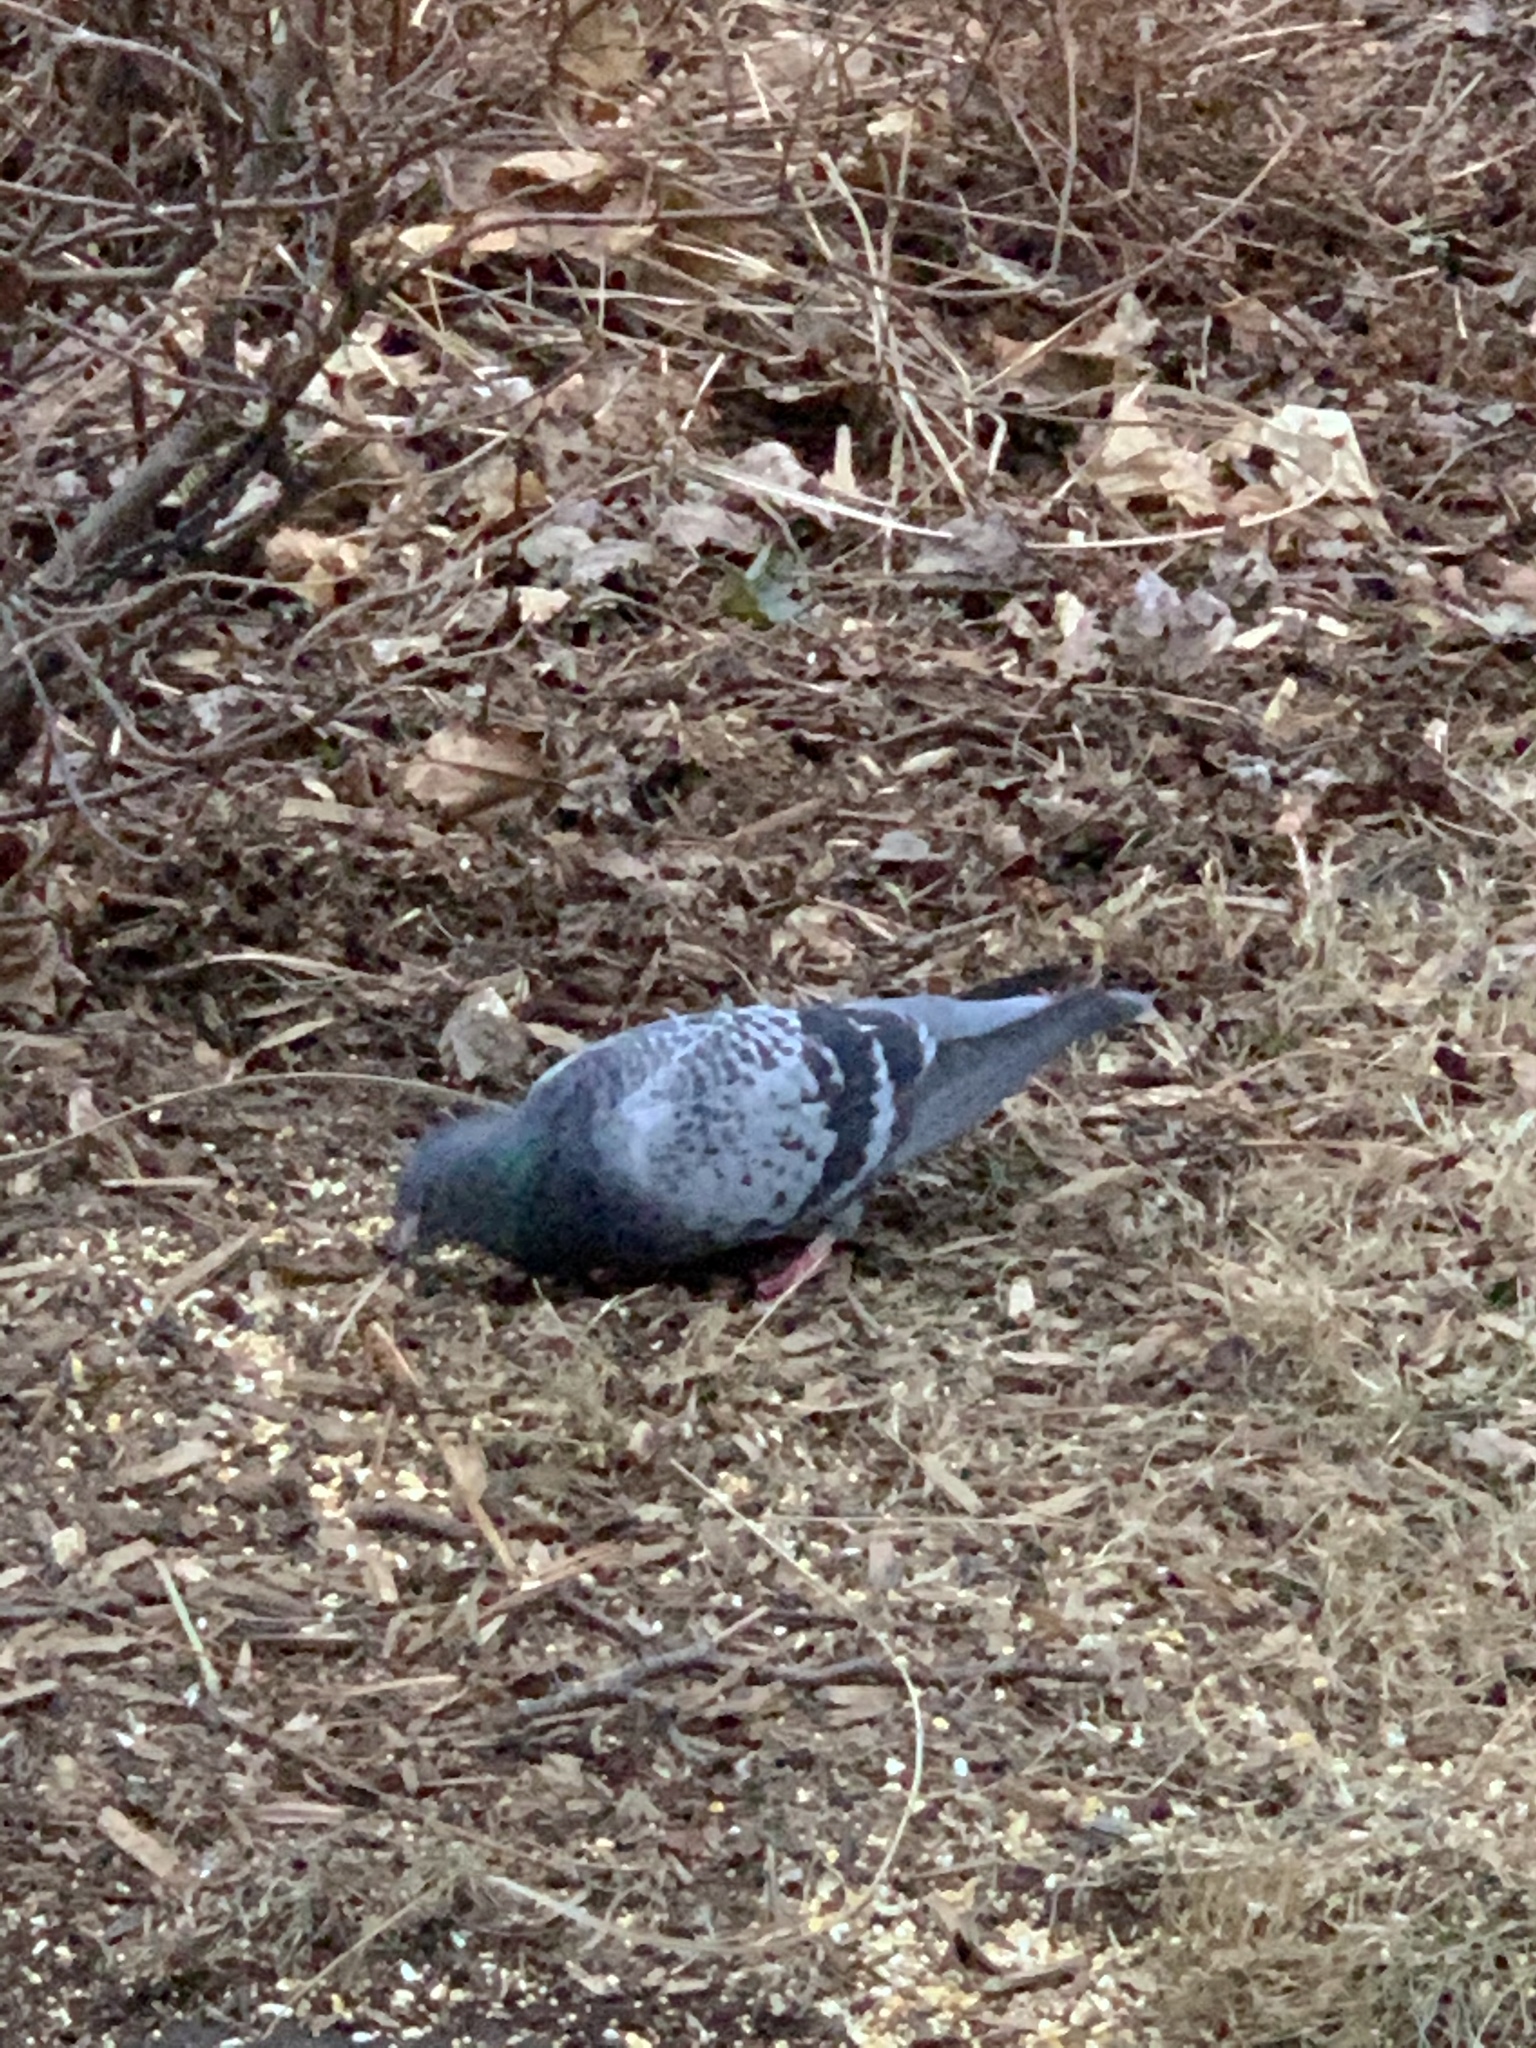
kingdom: Animalia
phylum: Chordata
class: Aves
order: Columbiformes
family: Columbidae
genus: Columba
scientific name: Columba livia
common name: Rock pigeon
